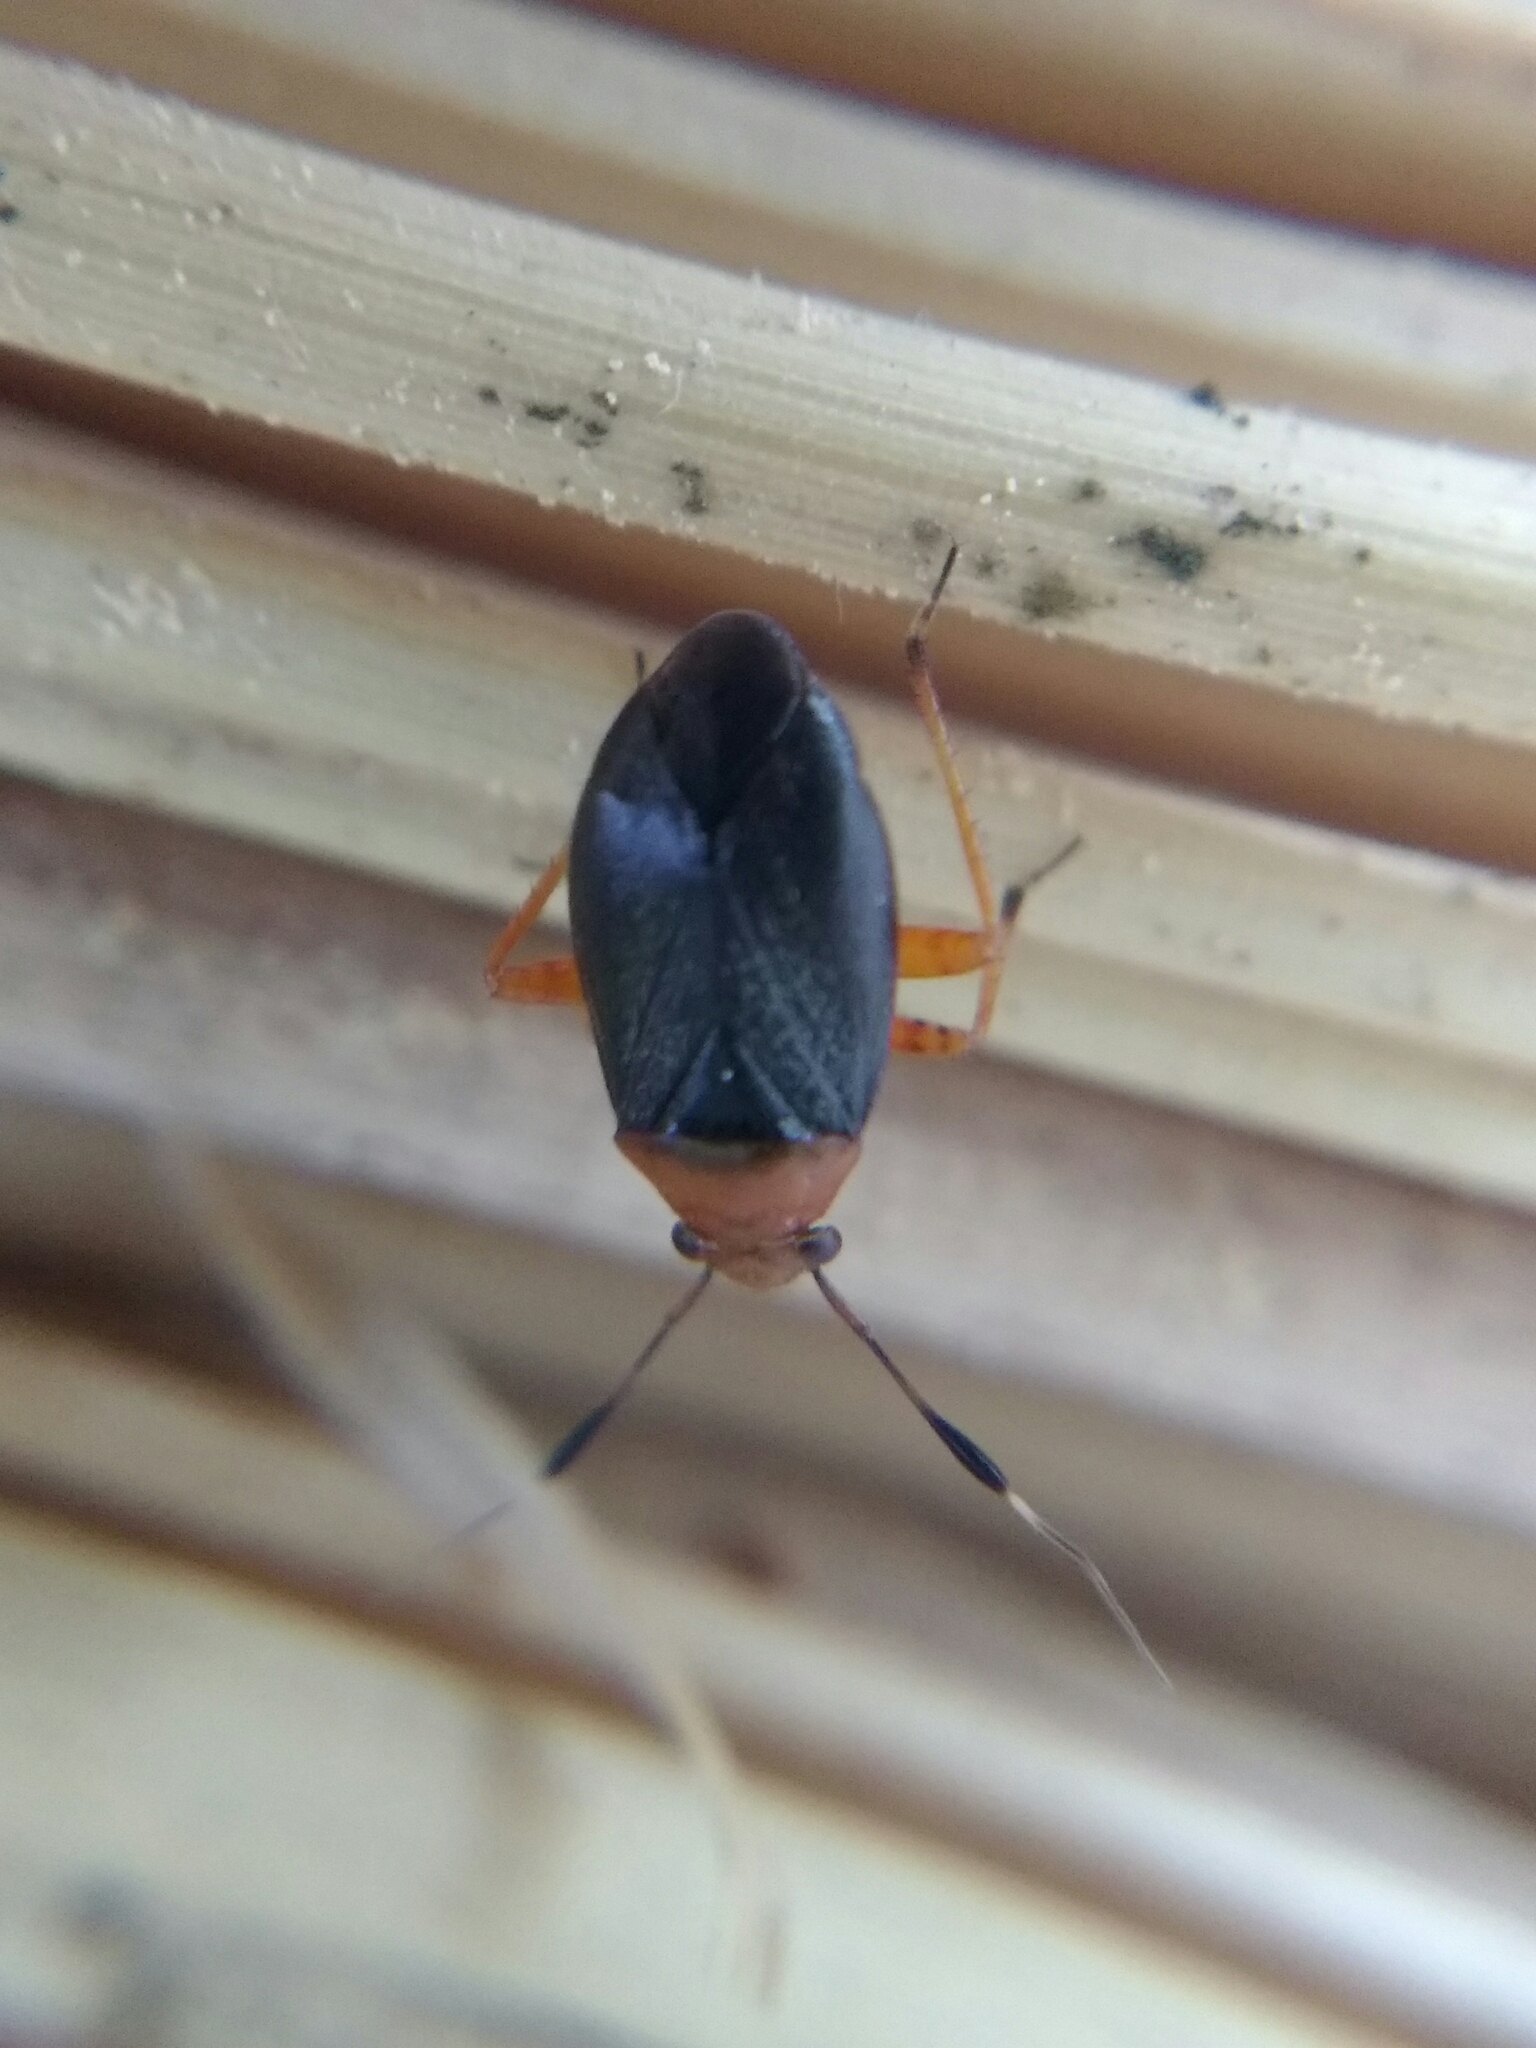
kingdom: Animalia
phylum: Arthropoda
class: Insecta
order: Hemiptera
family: Miridae
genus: Capsus
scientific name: Capsus ater
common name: Black plant bug
